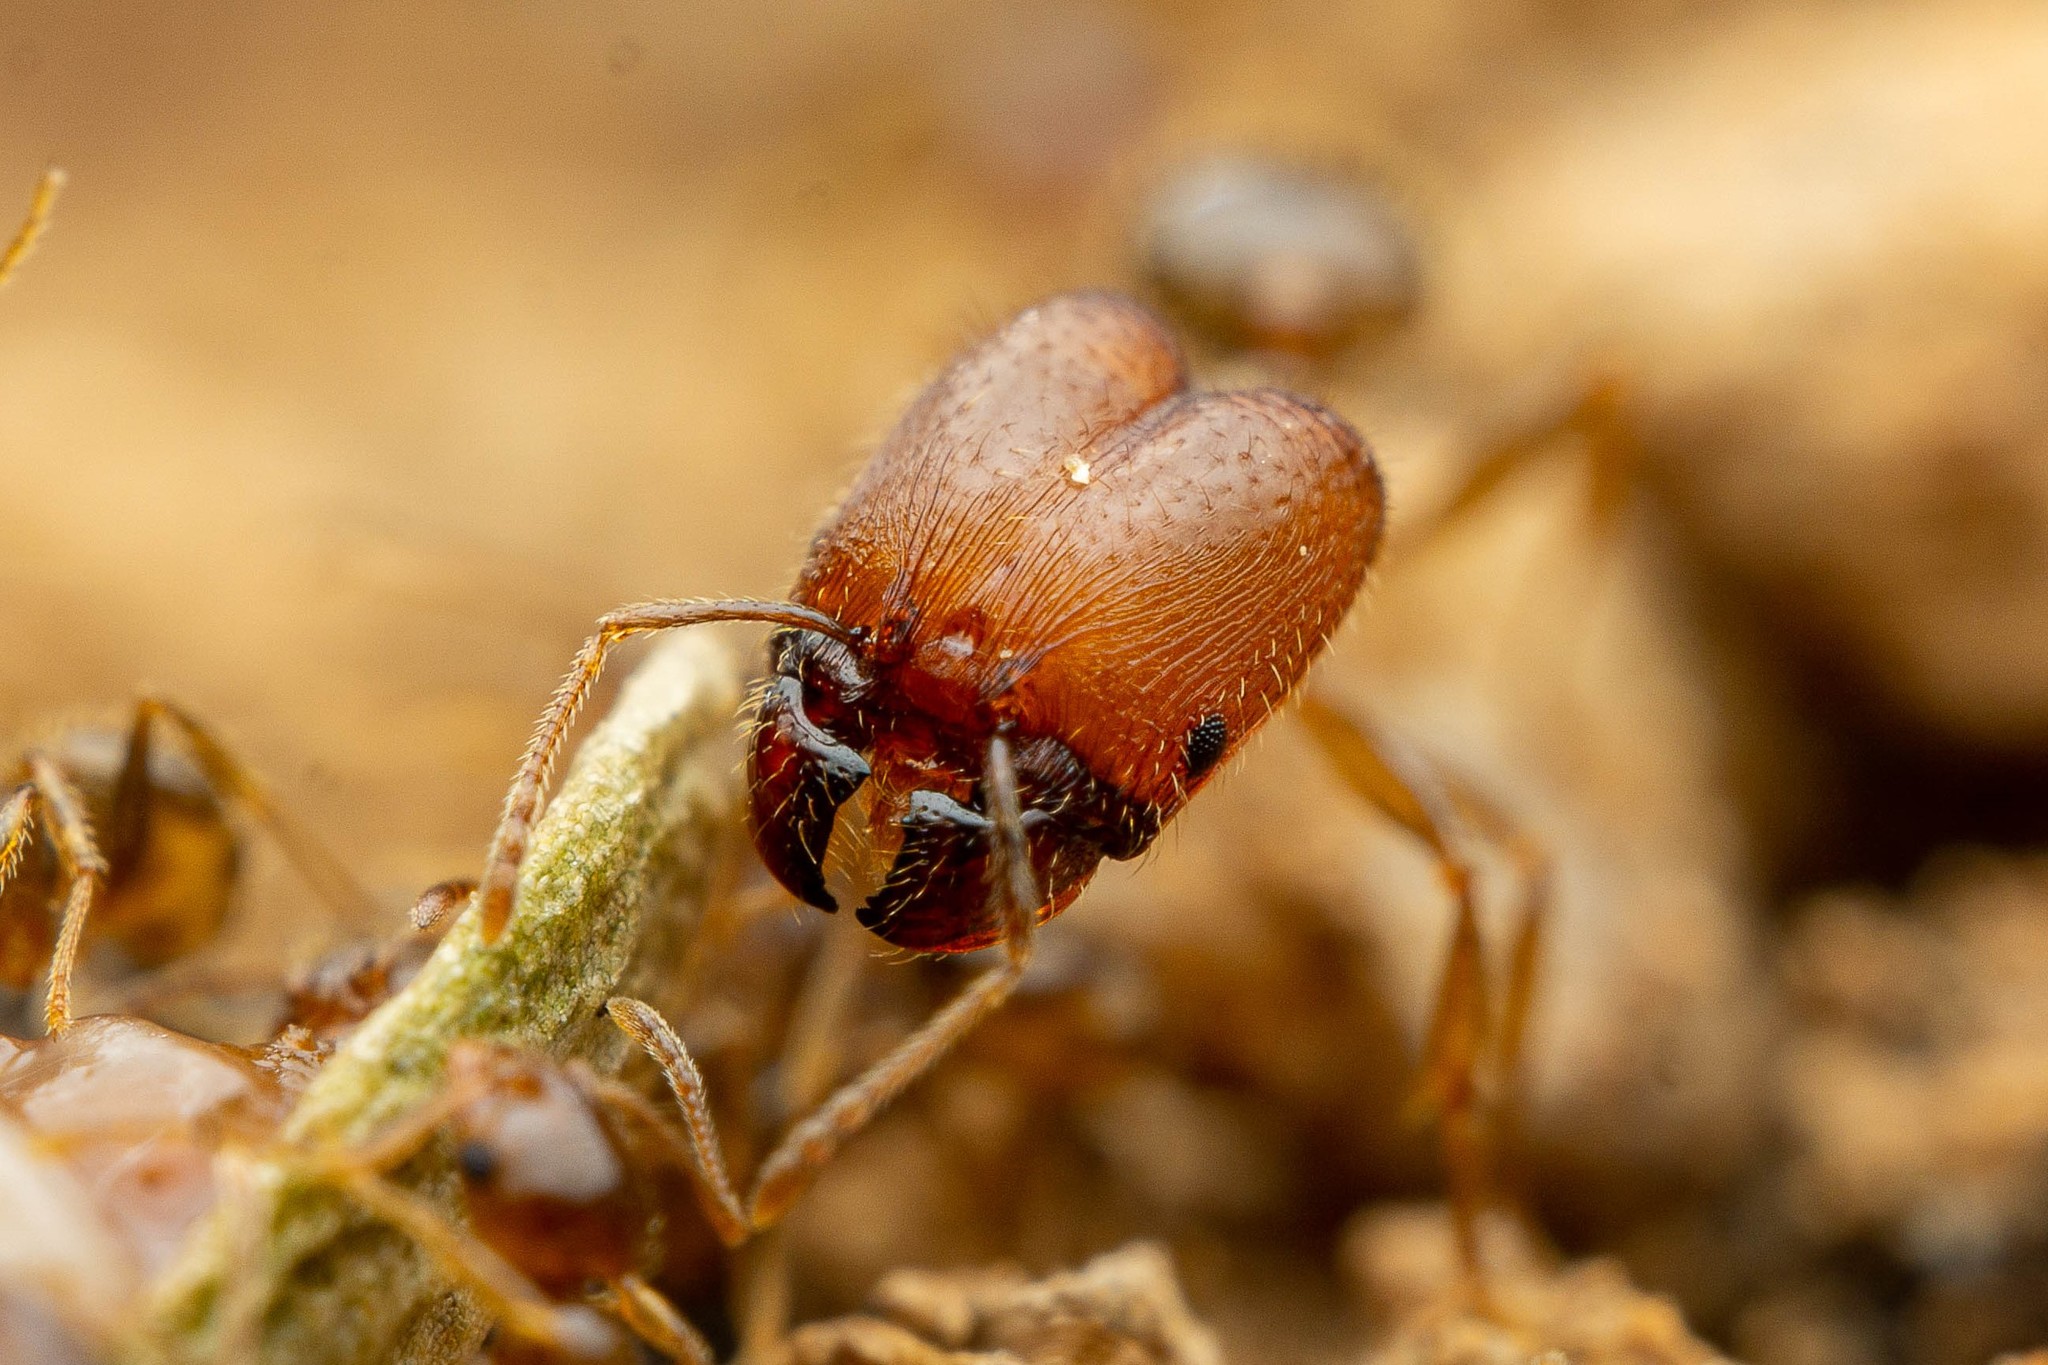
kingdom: Animalia
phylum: Arthropoda
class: Insecta
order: Hymenoptera
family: Formicidae
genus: Pheidole
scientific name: Pheidole tepicana
